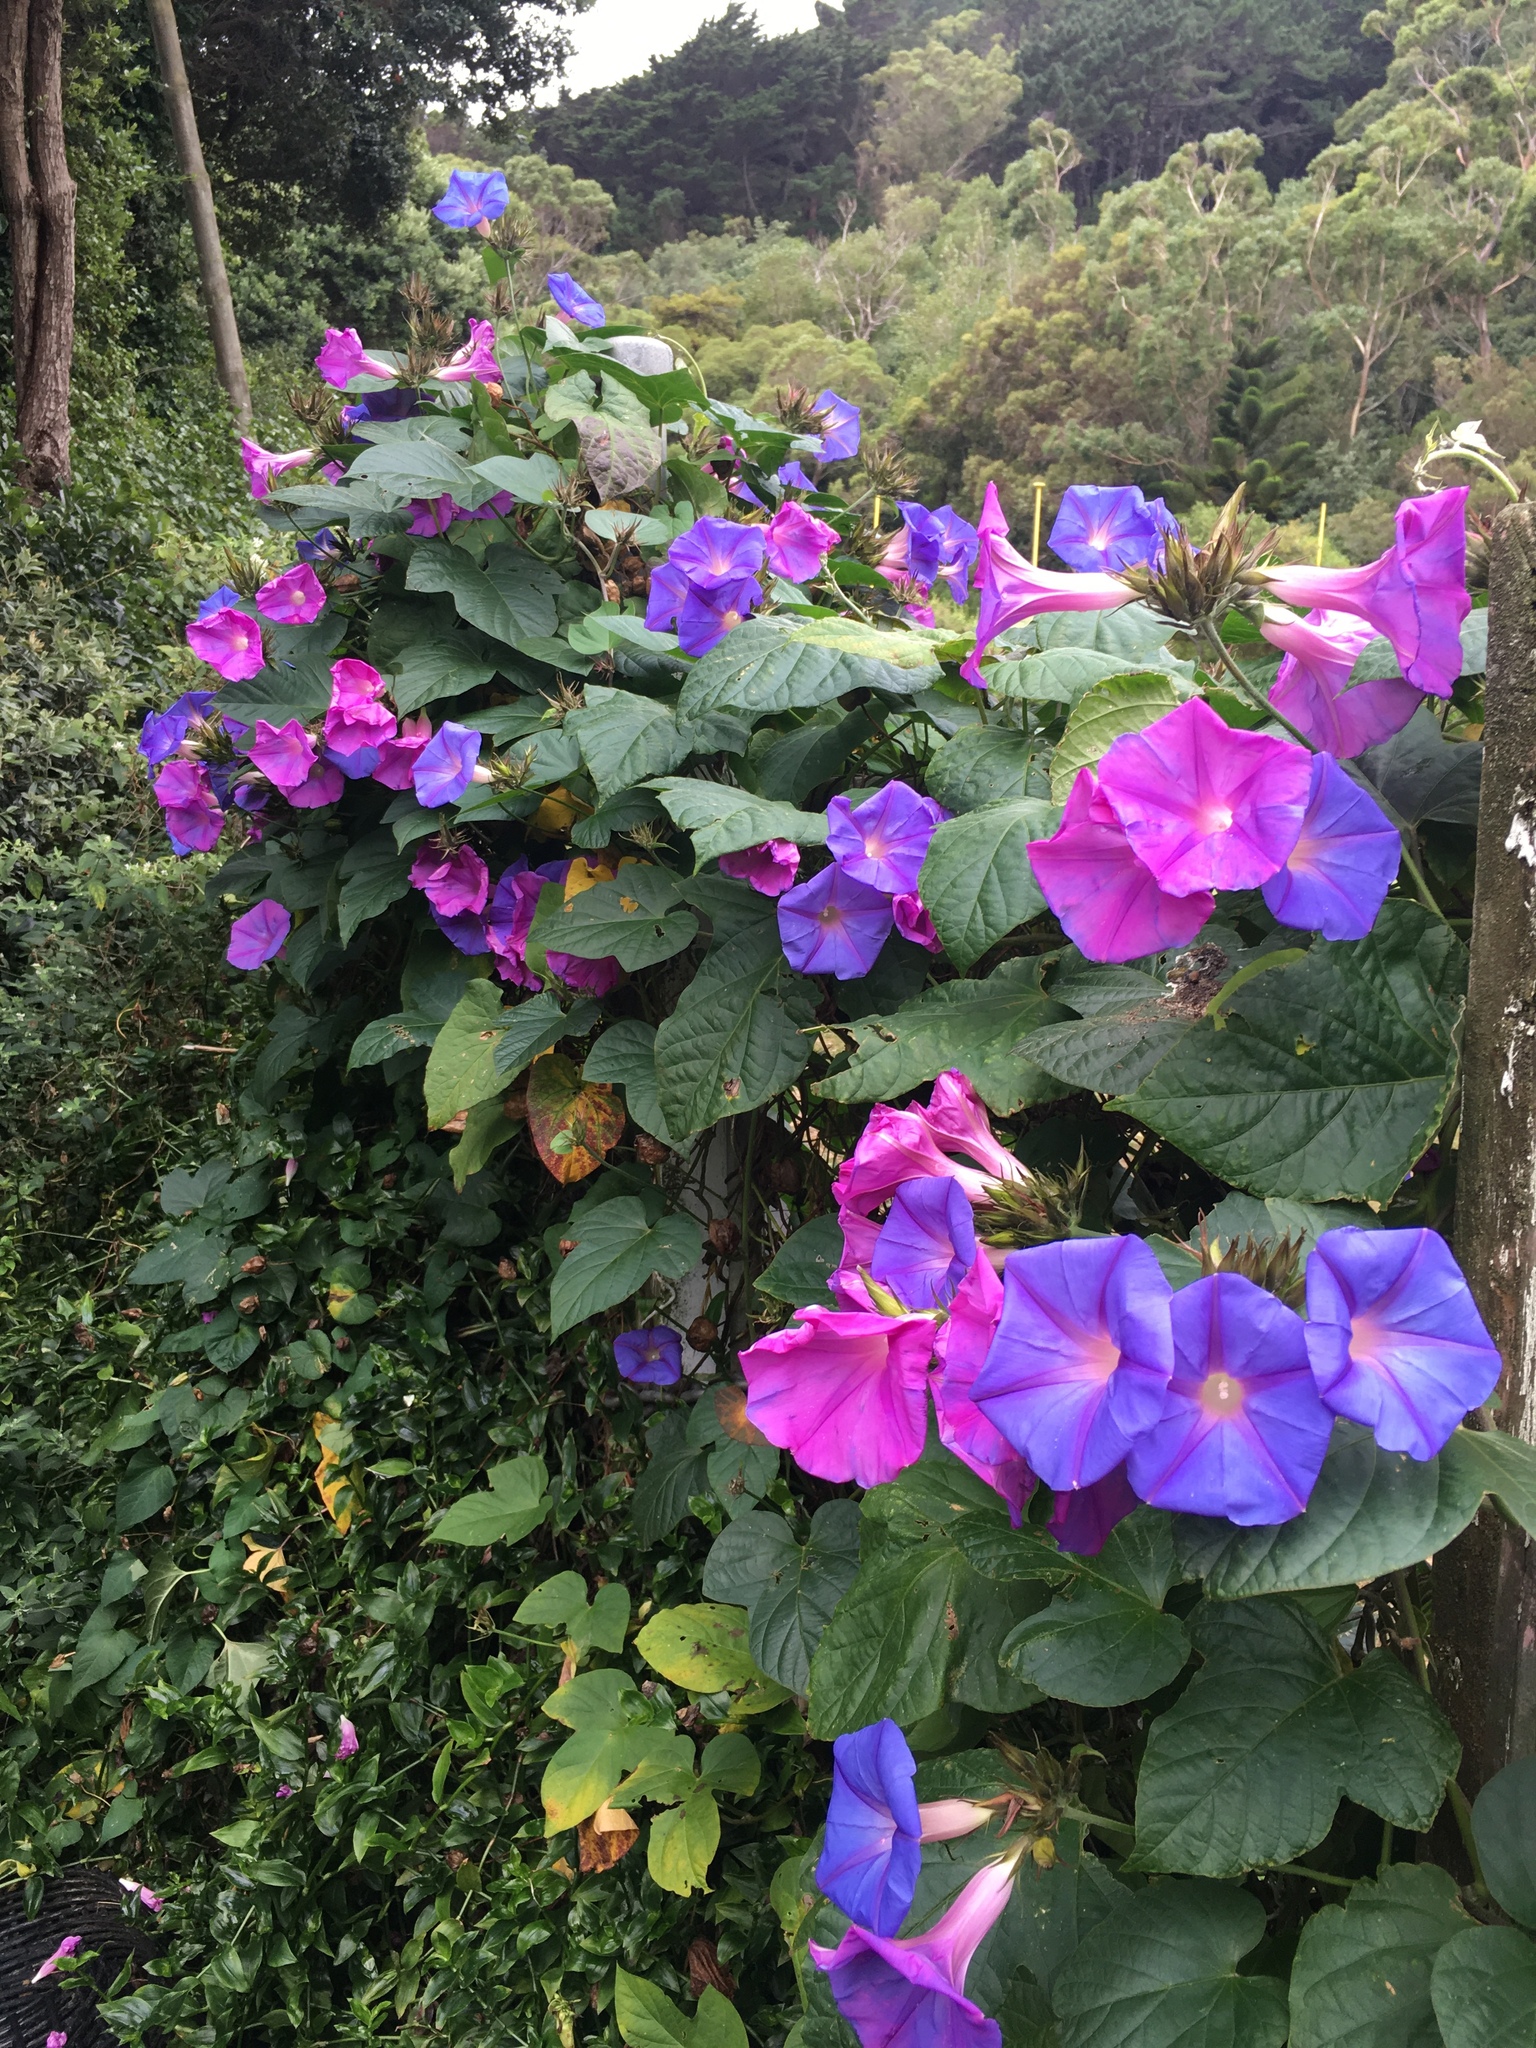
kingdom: Plantae
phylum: Tracheophyta
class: Magnoliopsida
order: Solanales
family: Convolvulaceae
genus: Ipomoea
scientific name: Ipomoea indica
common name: Blue dawnflower
